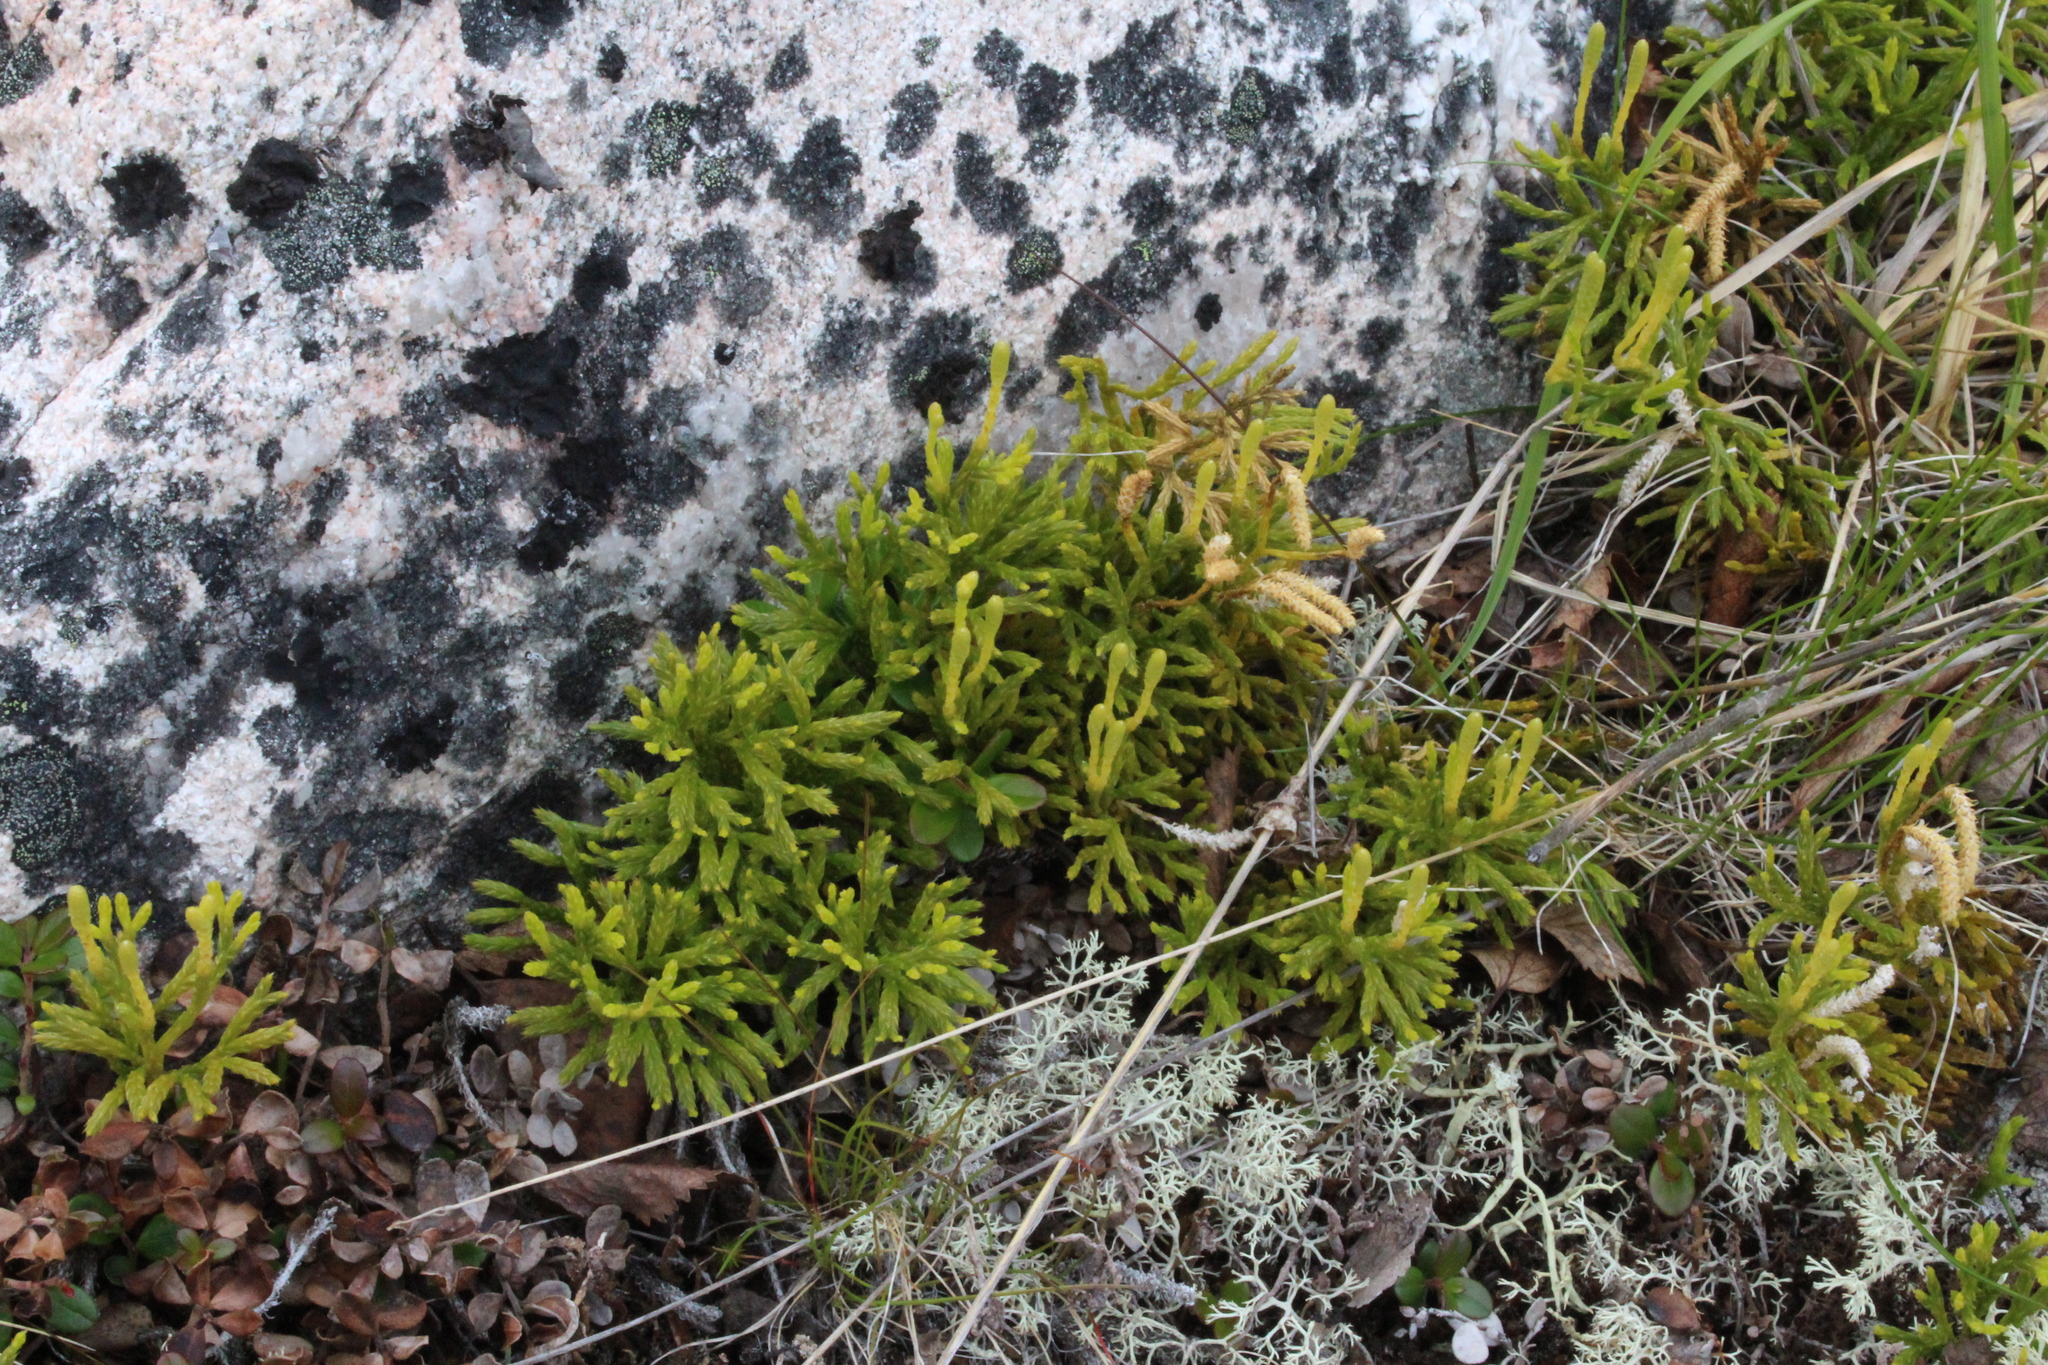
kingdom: Plantae
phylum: Tracheophyta
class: Lycopodiopsida
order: Lycopodiales
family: Lycopodiaceae
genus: Diphasiastrum
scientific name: Diphasiastrum complanatum
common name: Northern running-pine
